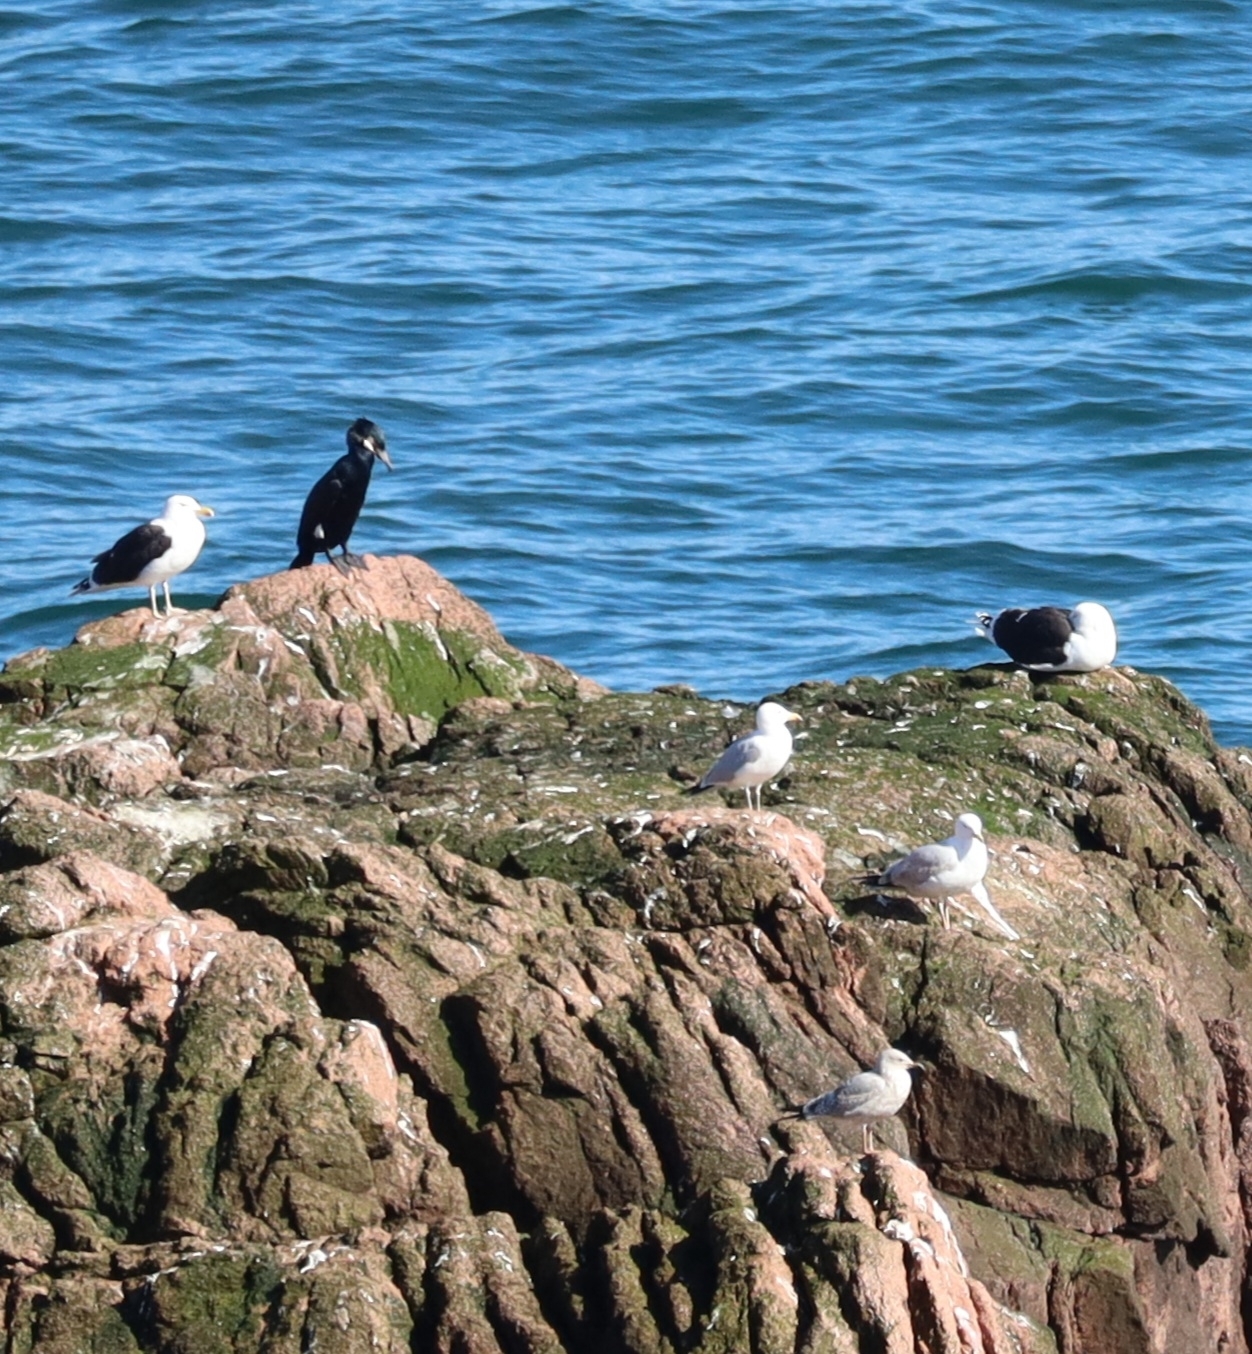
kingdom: Animalia
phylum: Chordata
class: Aves
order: Charadriiformes
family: Laridae
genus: Larus
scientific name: Larus marinus
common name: Great black-backed gull
